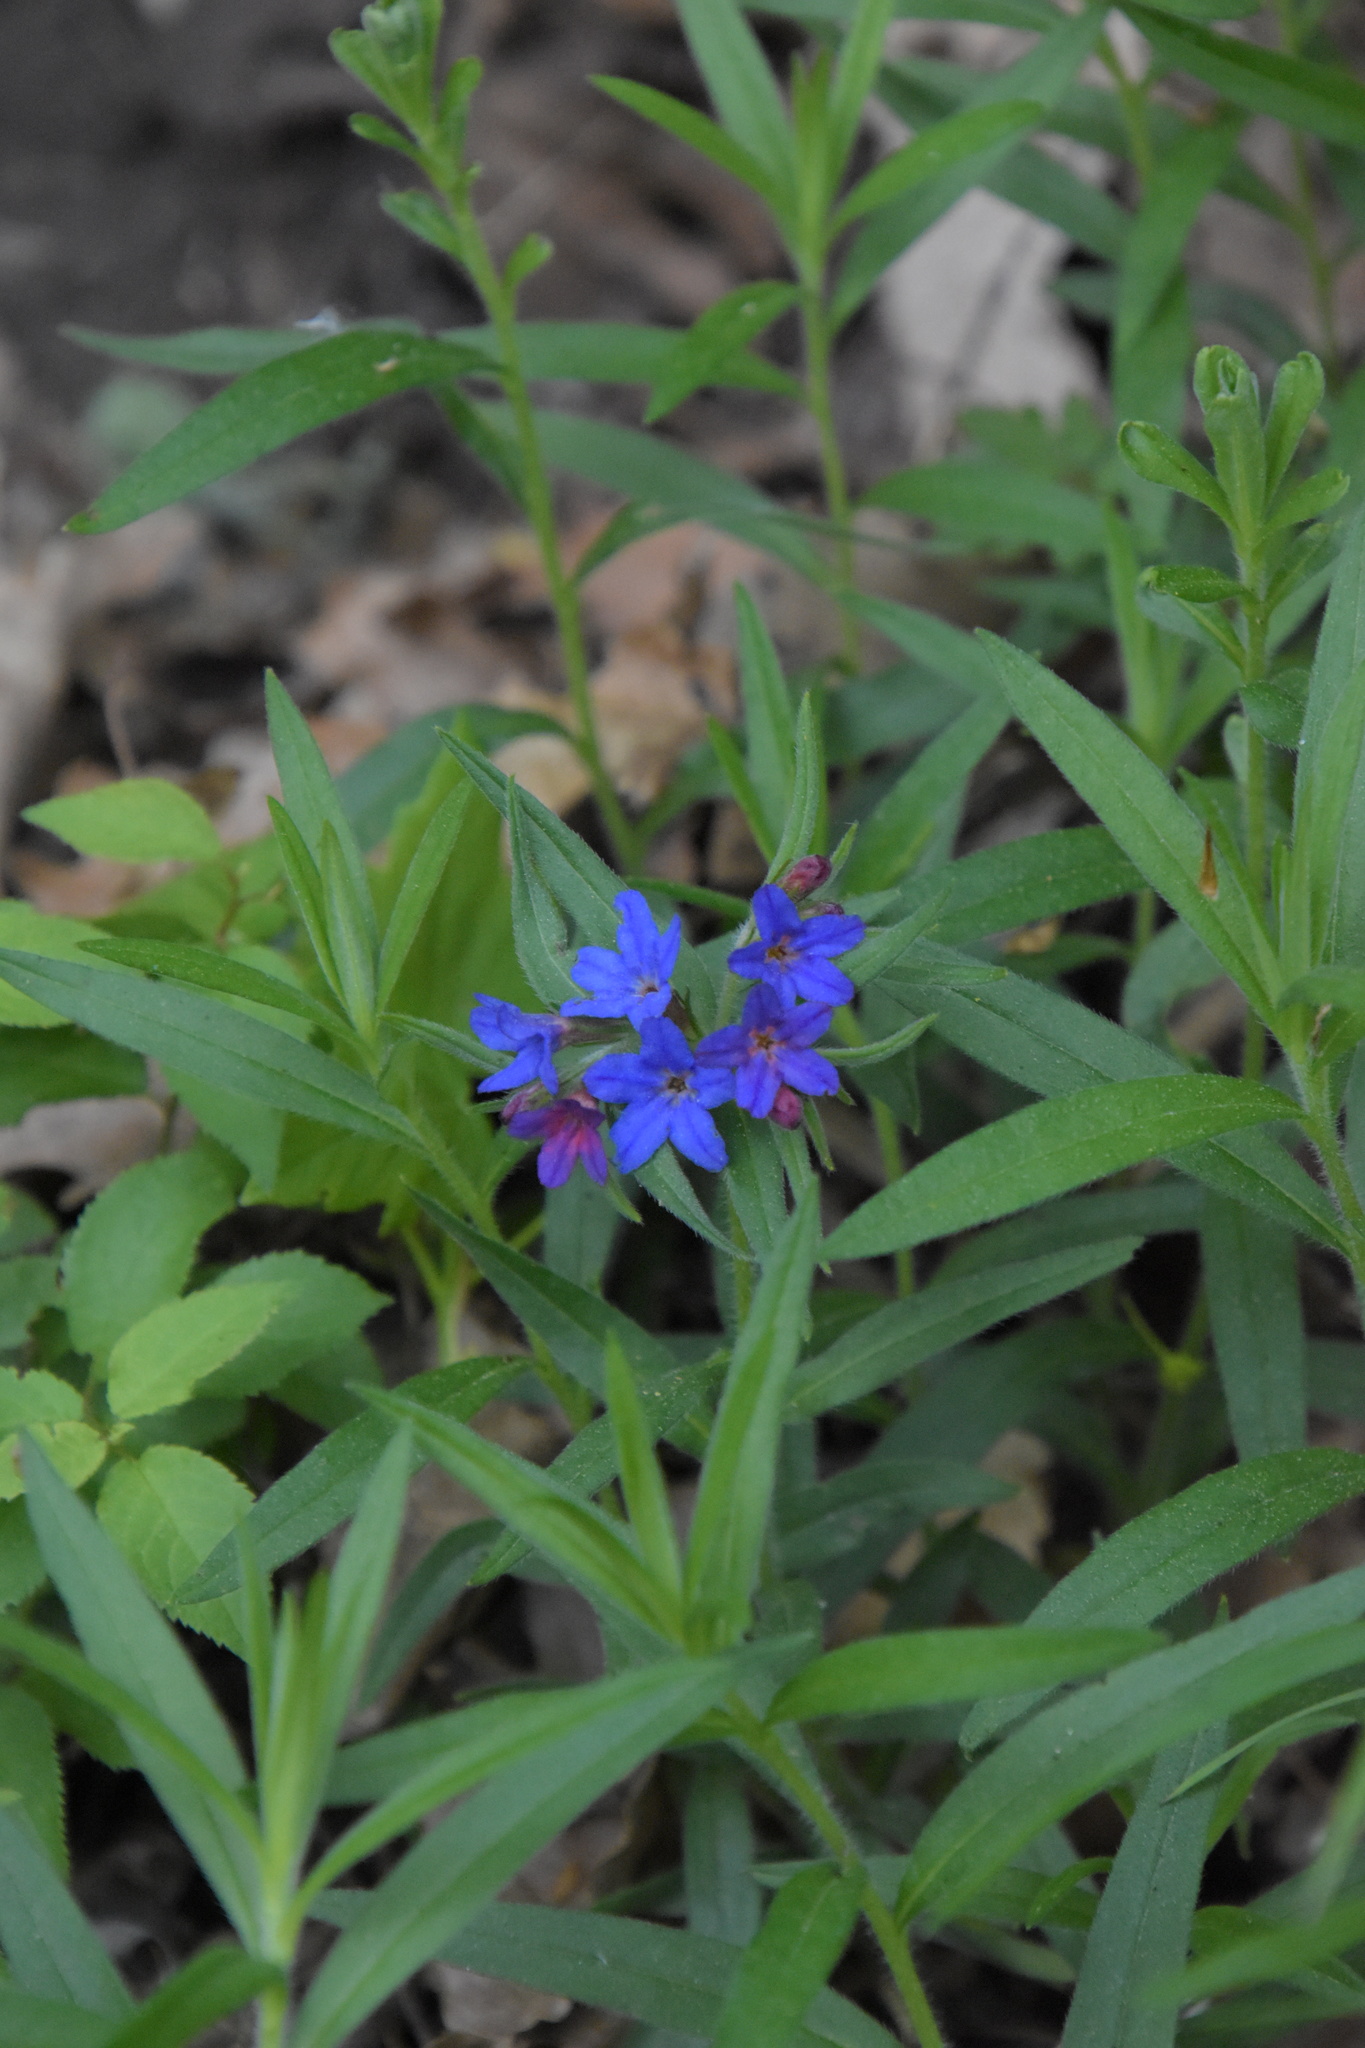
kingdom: Plantae
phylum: Tracheophyta
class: Magnoliopsida
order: Boraginales
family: Boraginaceae
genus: Aegonychon
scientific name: Aegonychon purpurocaeruleum
